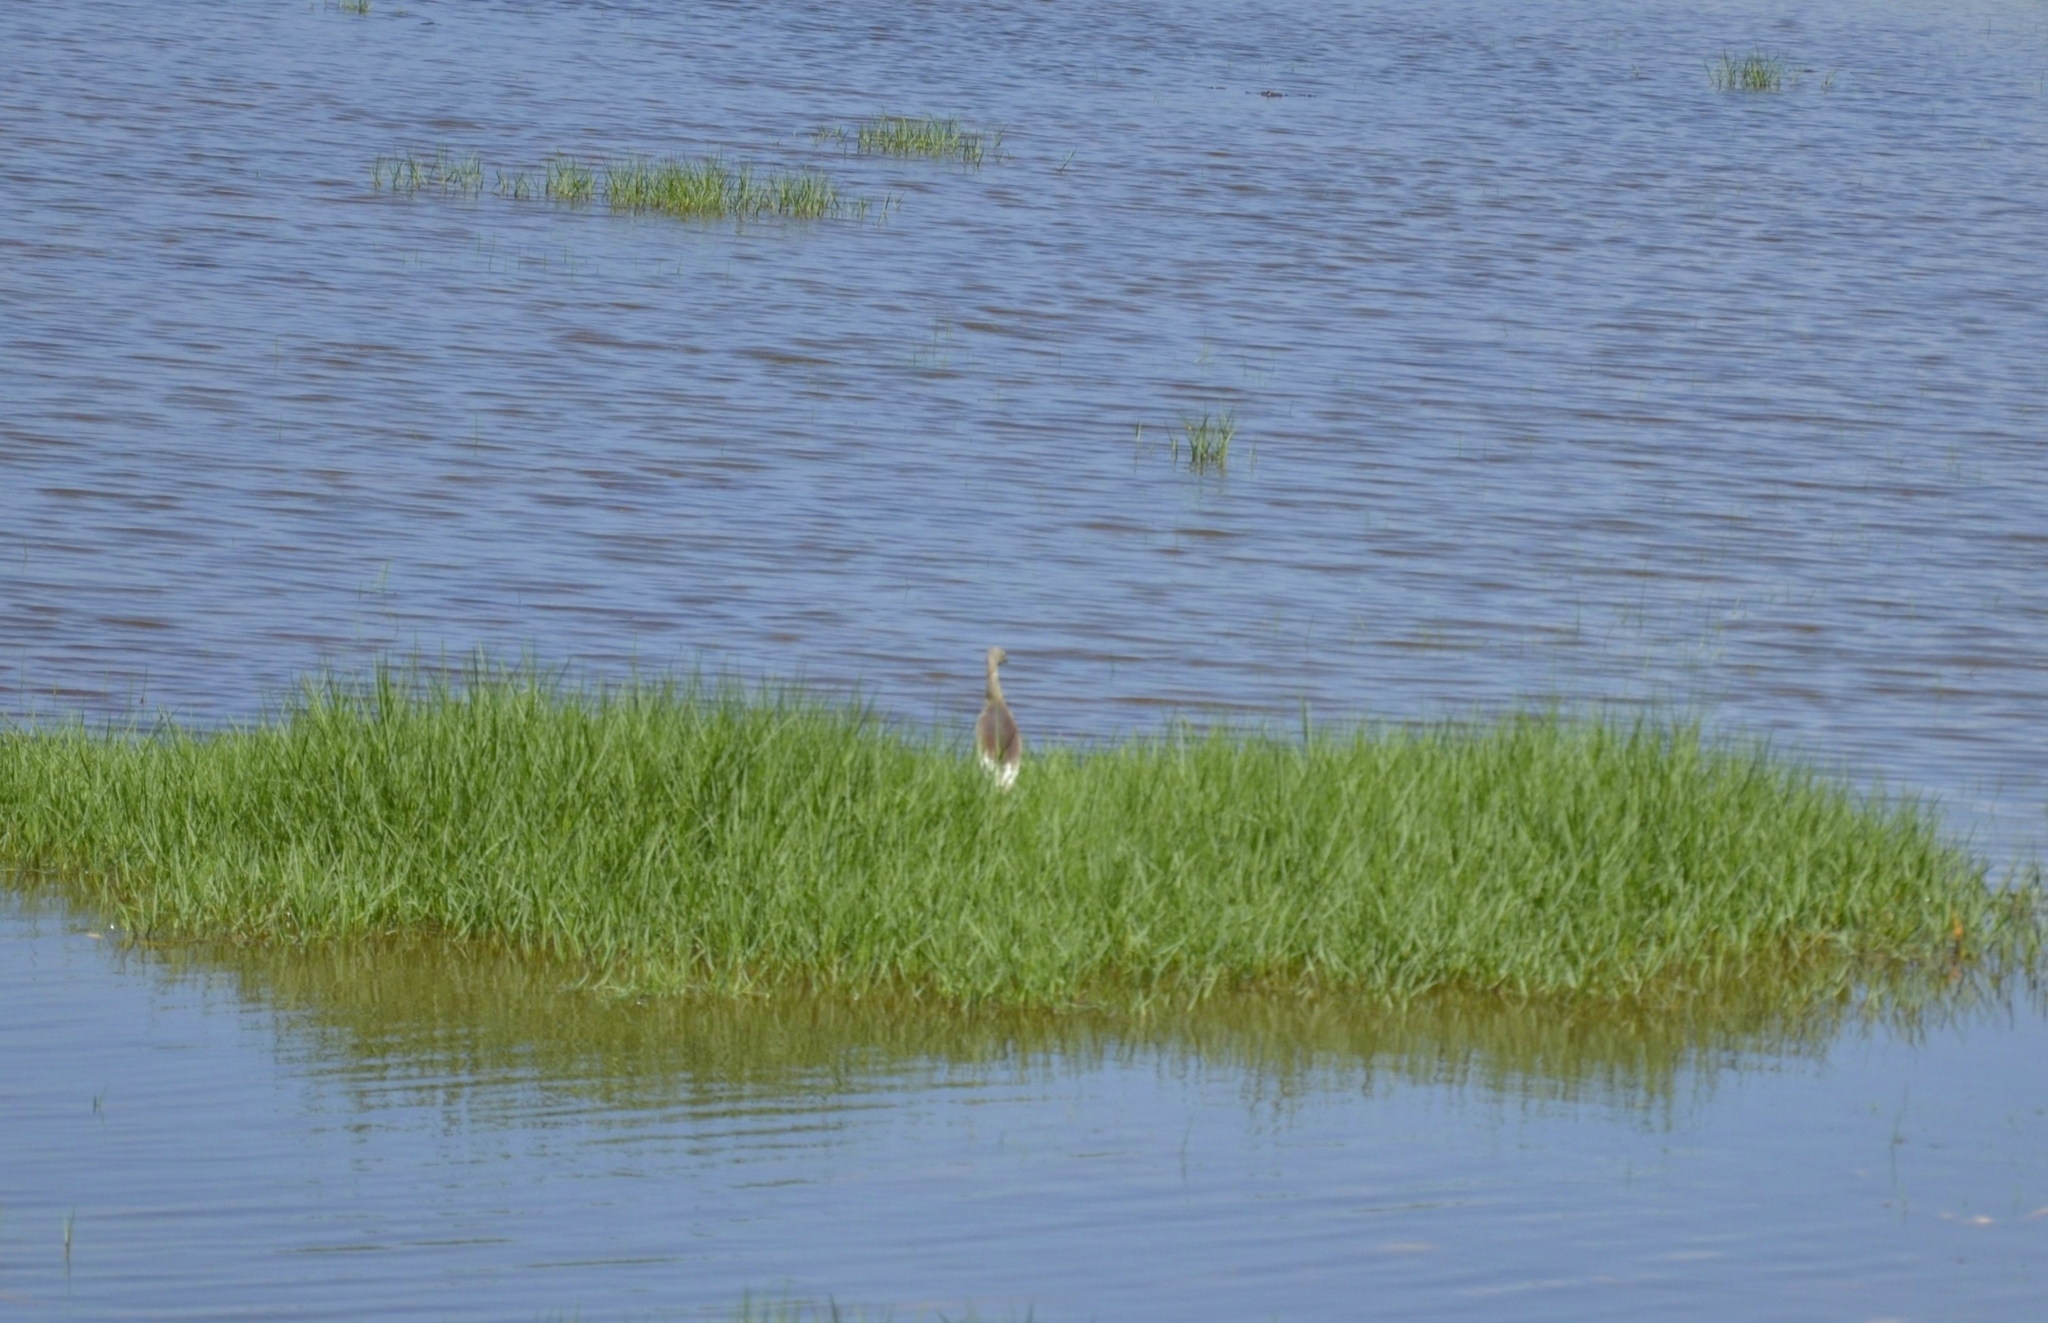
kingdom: Animalia
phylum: Chordata
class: Aves
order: Pelecaniformes
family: Ardeidae
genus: Ardeola
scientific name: Ardeola grayii
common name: Indian pond heron
